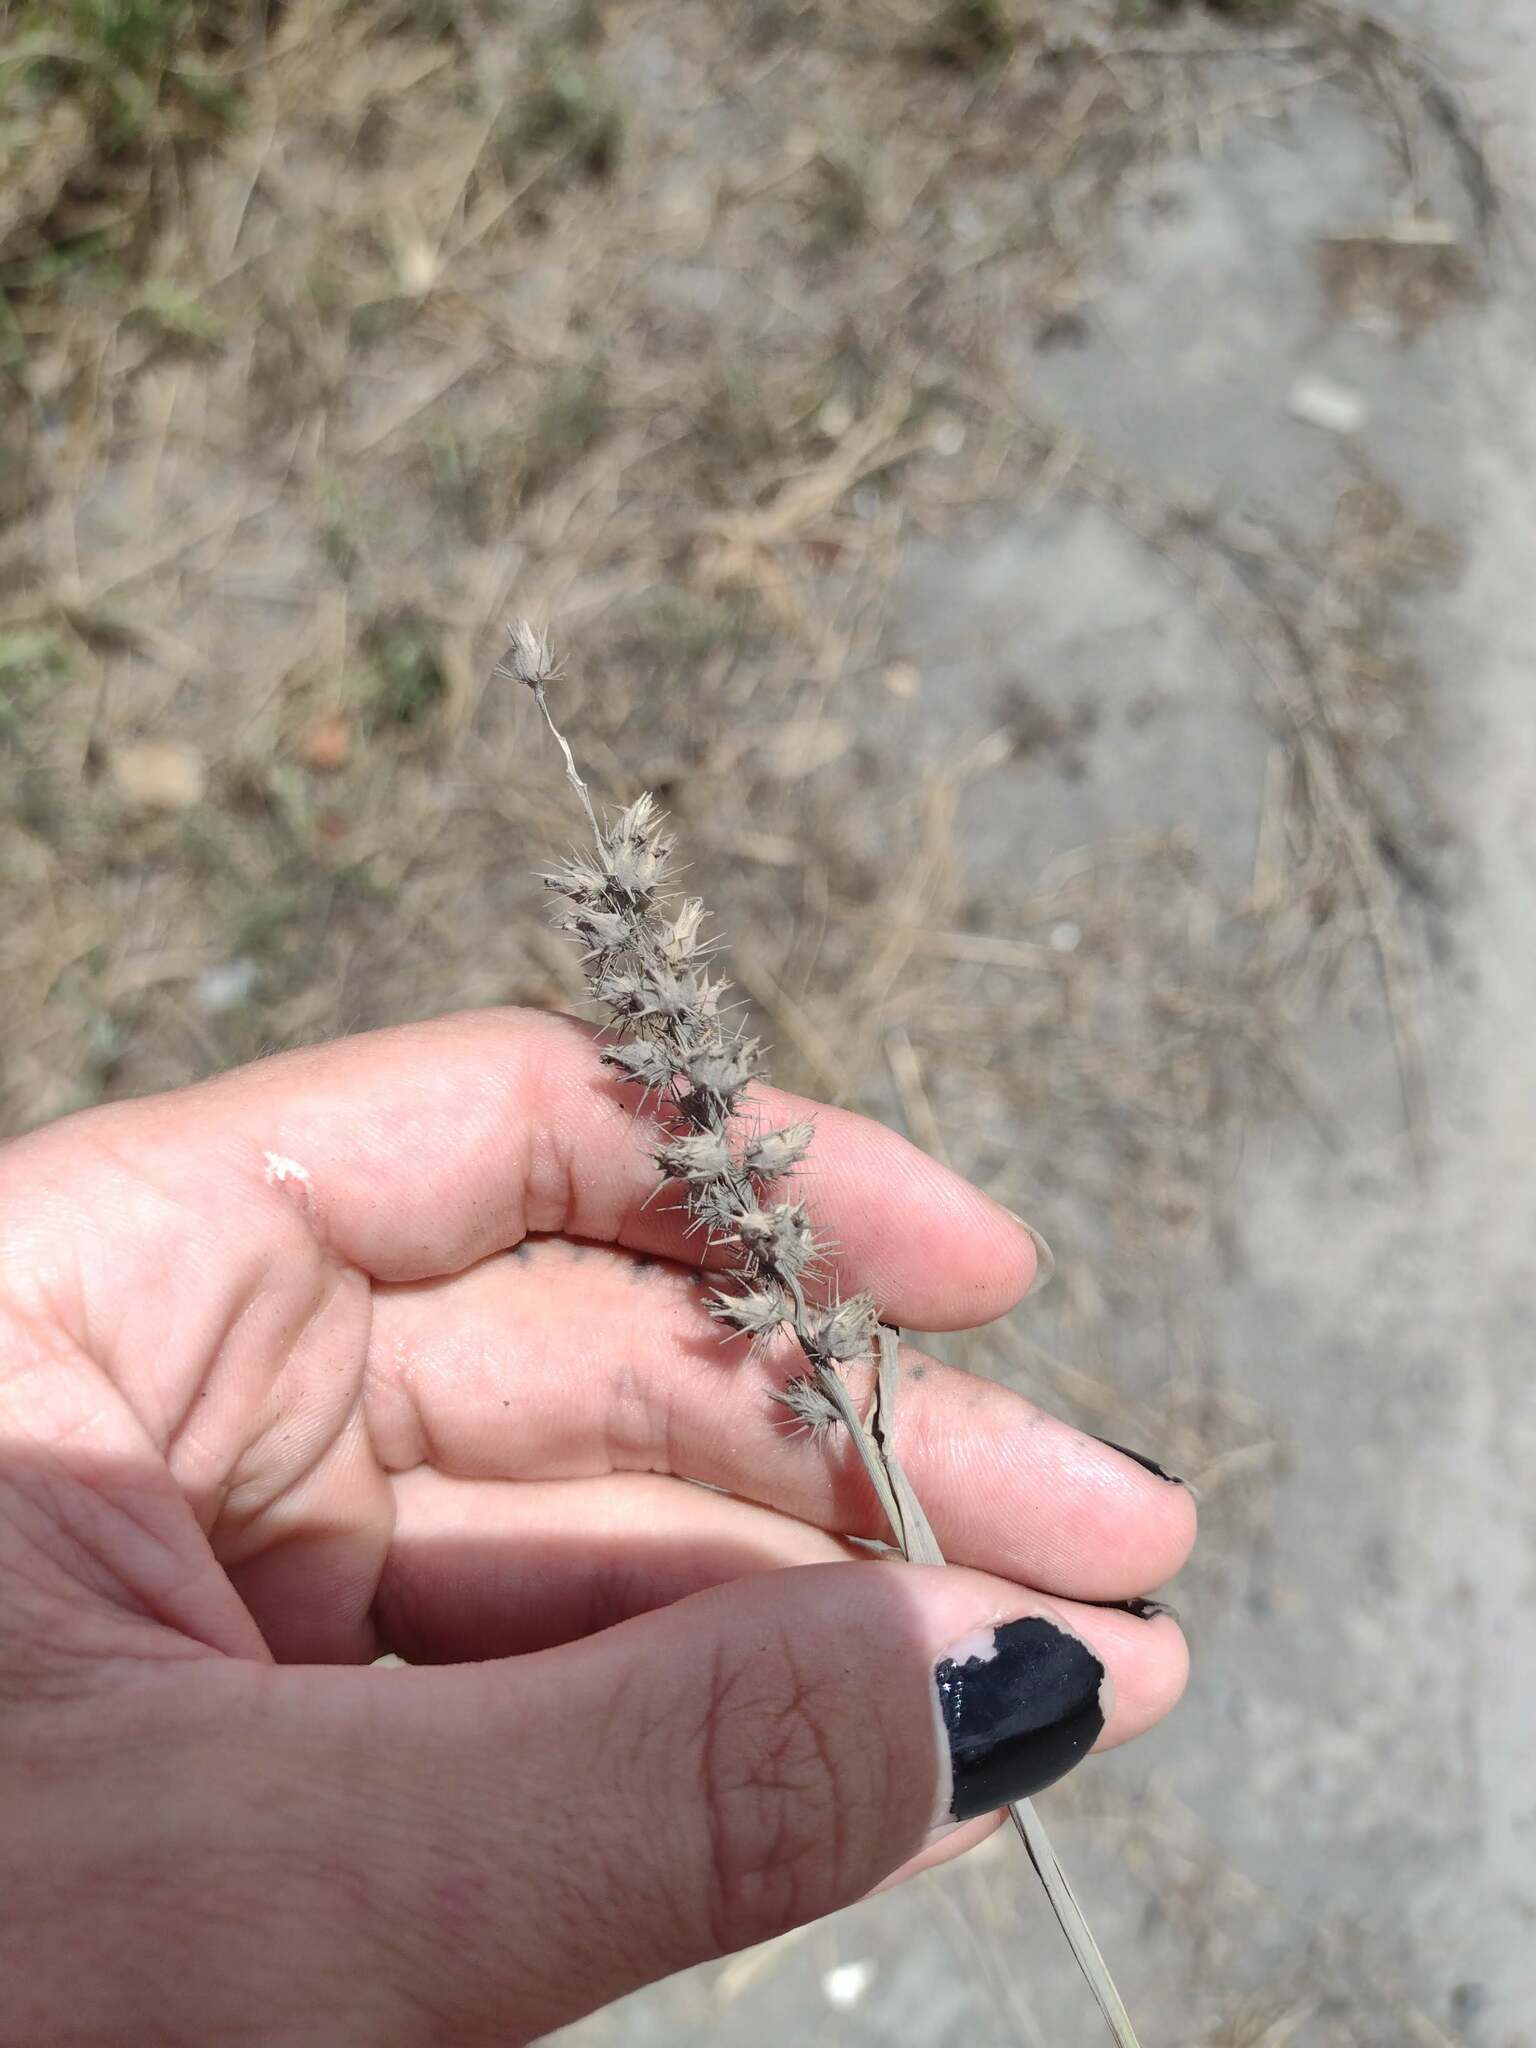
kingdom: Plantae
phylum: Tracheophyta
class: Liliopsida
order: Poales
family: Poaceae
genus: Cenchrus
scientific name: Cenchrus echinatus
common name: Southern sandbur
